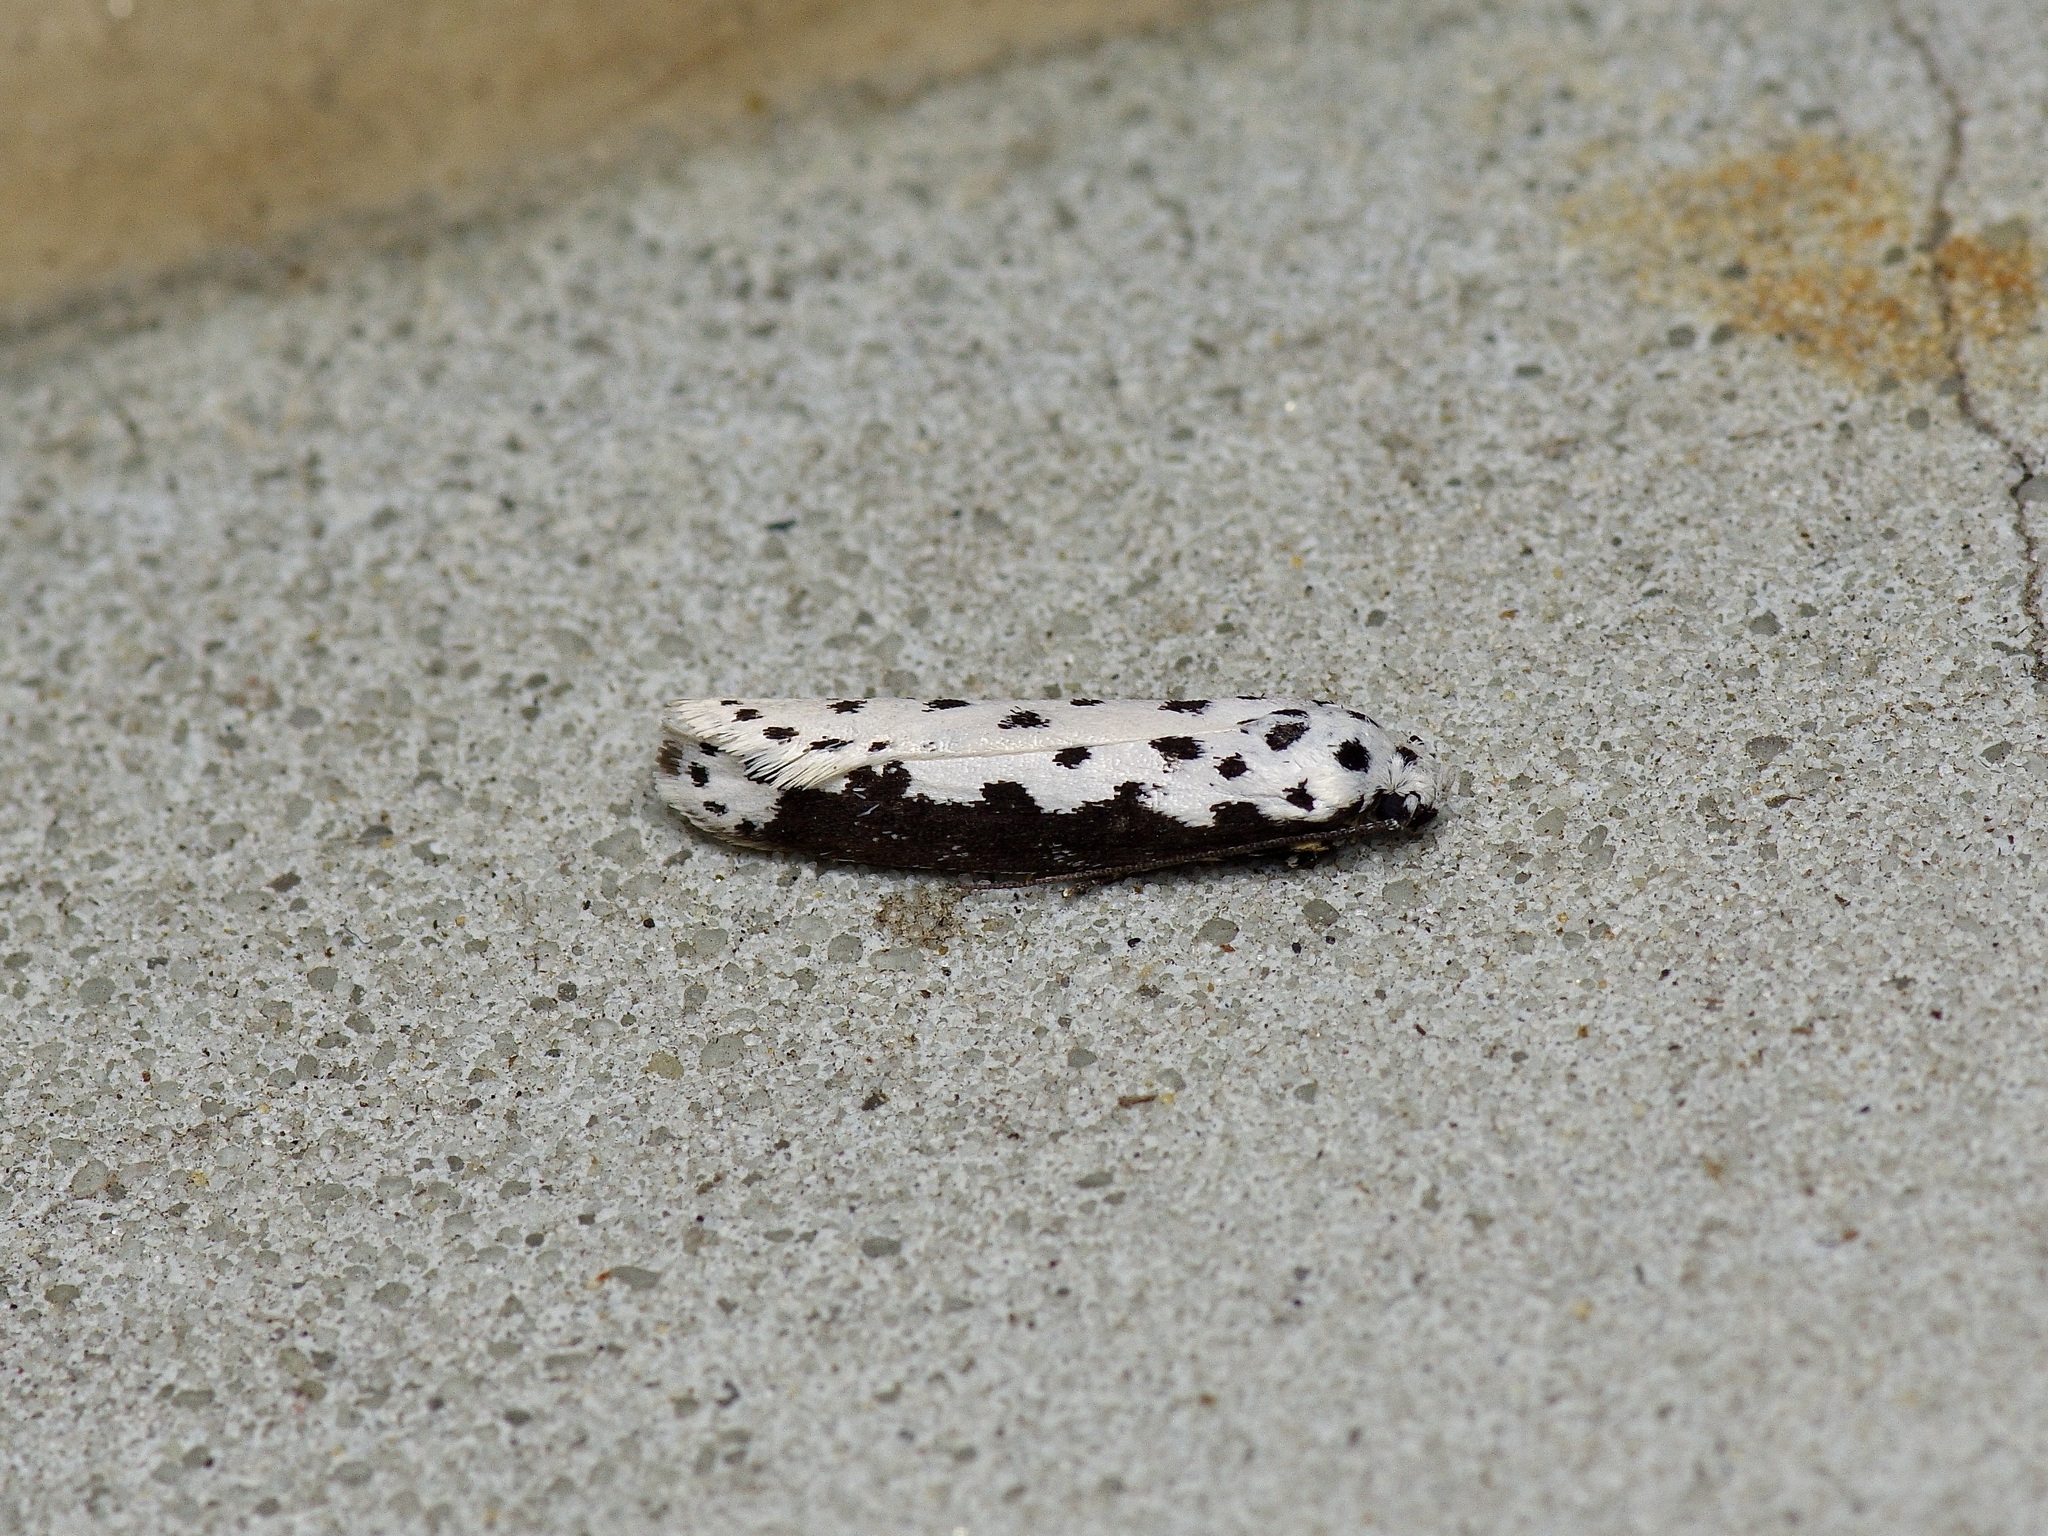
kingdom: Animalia
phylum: Arthropoda
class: Insecta
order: Lepidoptera
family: Ethmiidae
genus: Ethmia
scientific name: Ethmia semilugens
